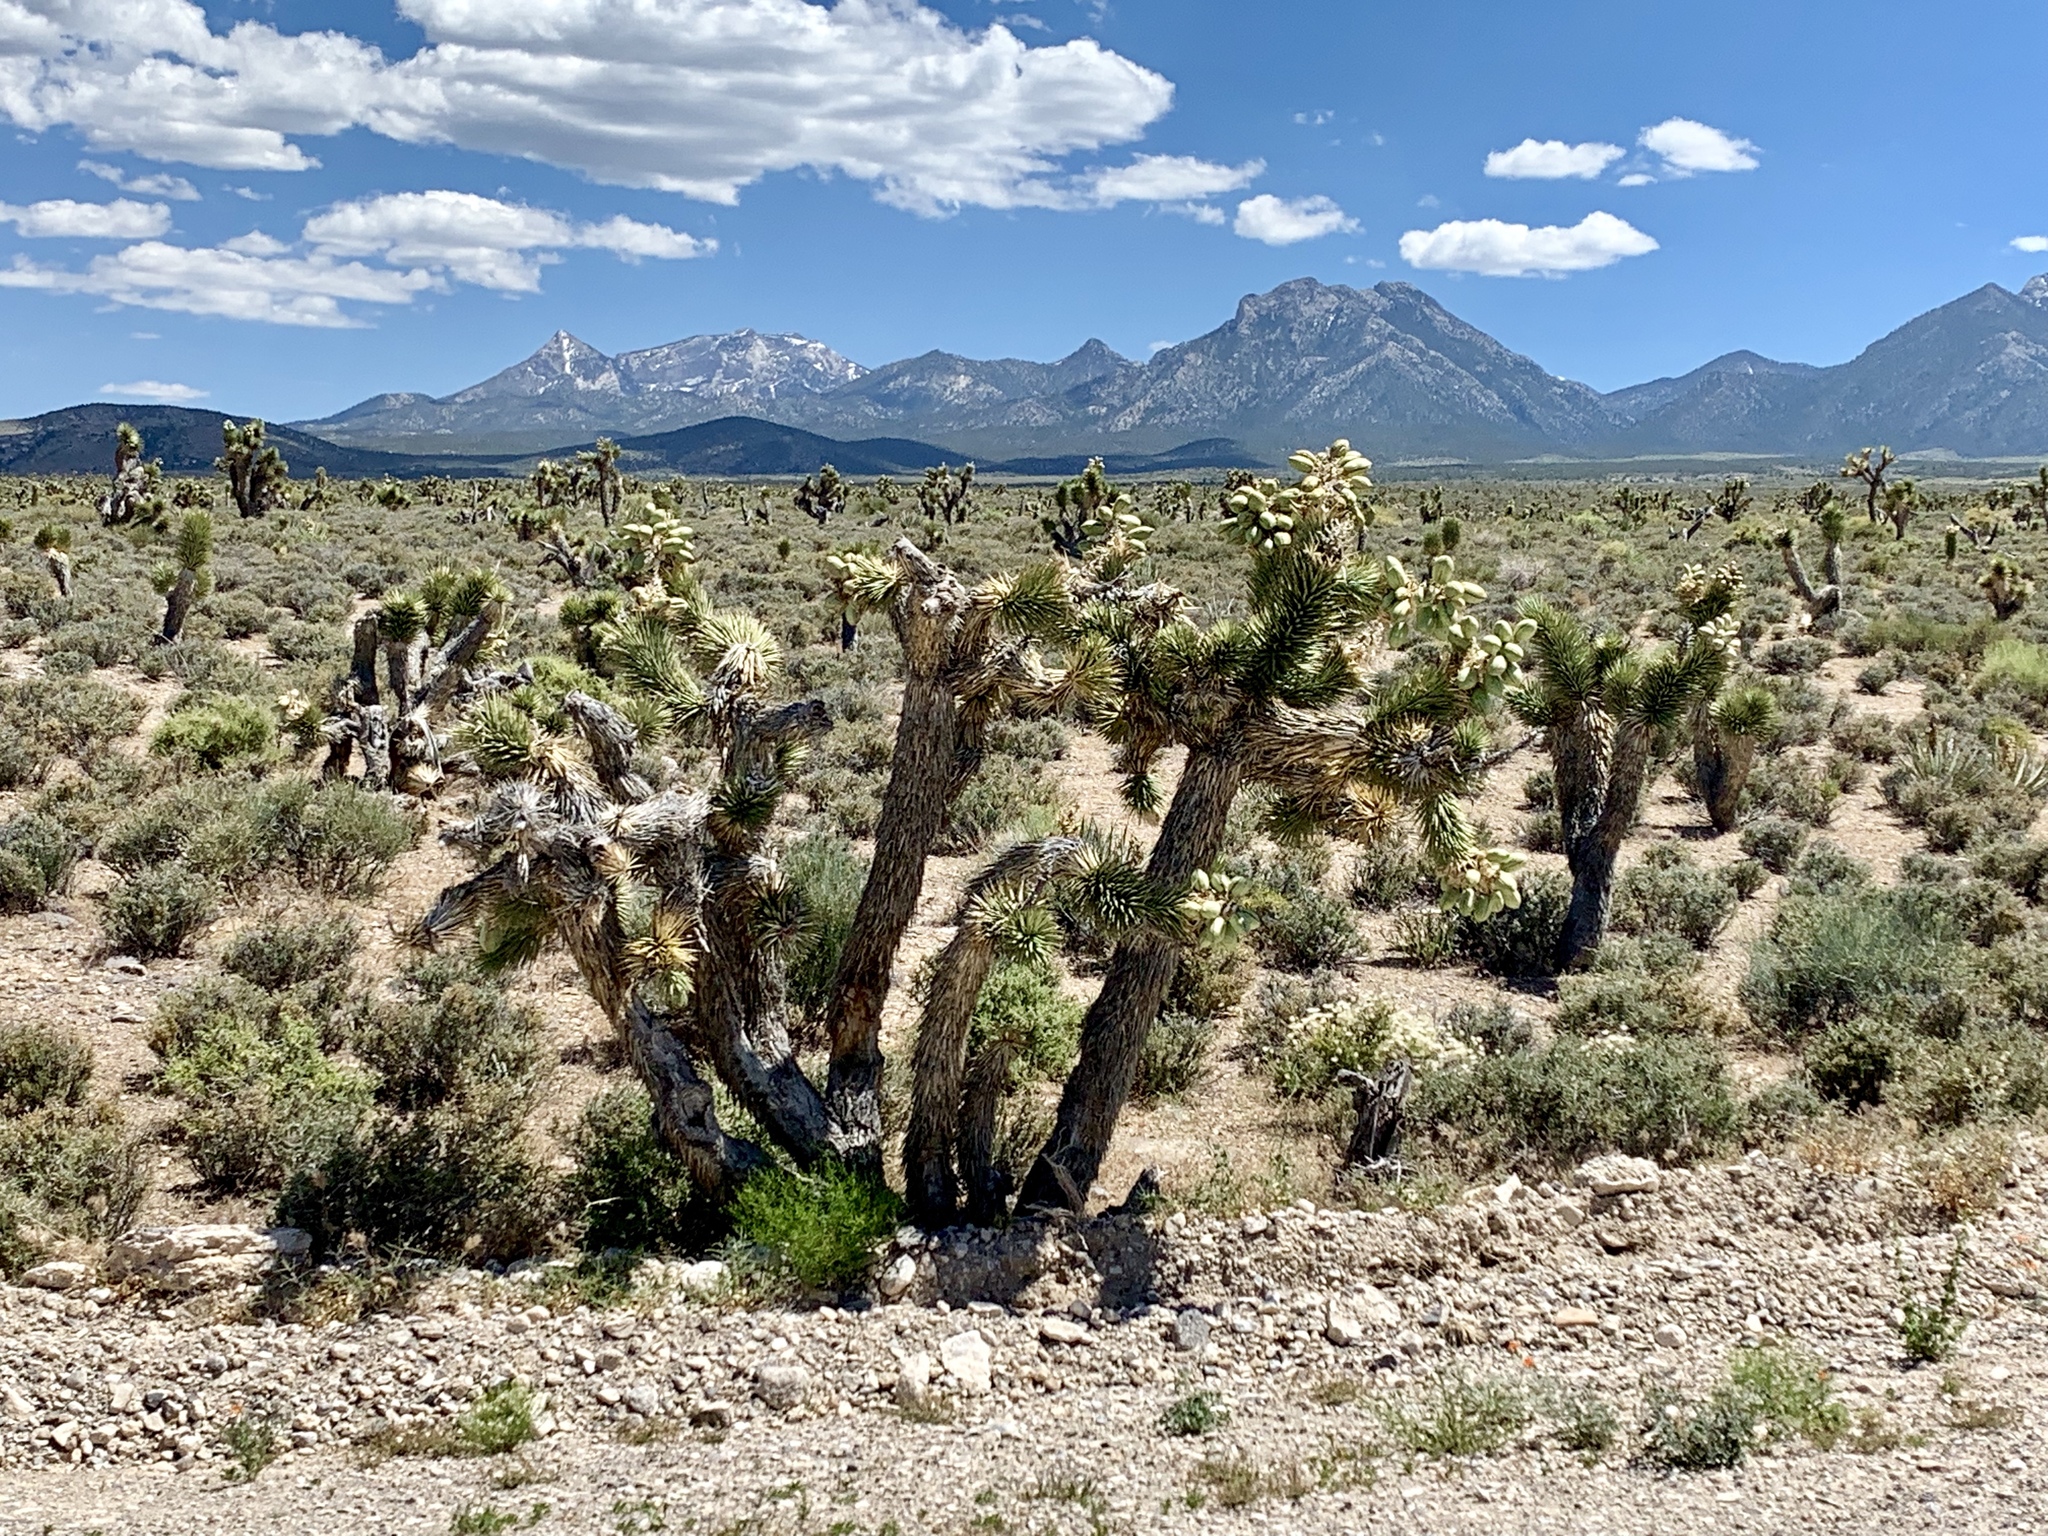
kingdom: Plantae
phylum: Tracheophyta
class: Liliopsida
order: Asparagales
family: Asparagaceae
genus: Yucca
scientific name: Yucca brevifolia
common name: Joshua tree
